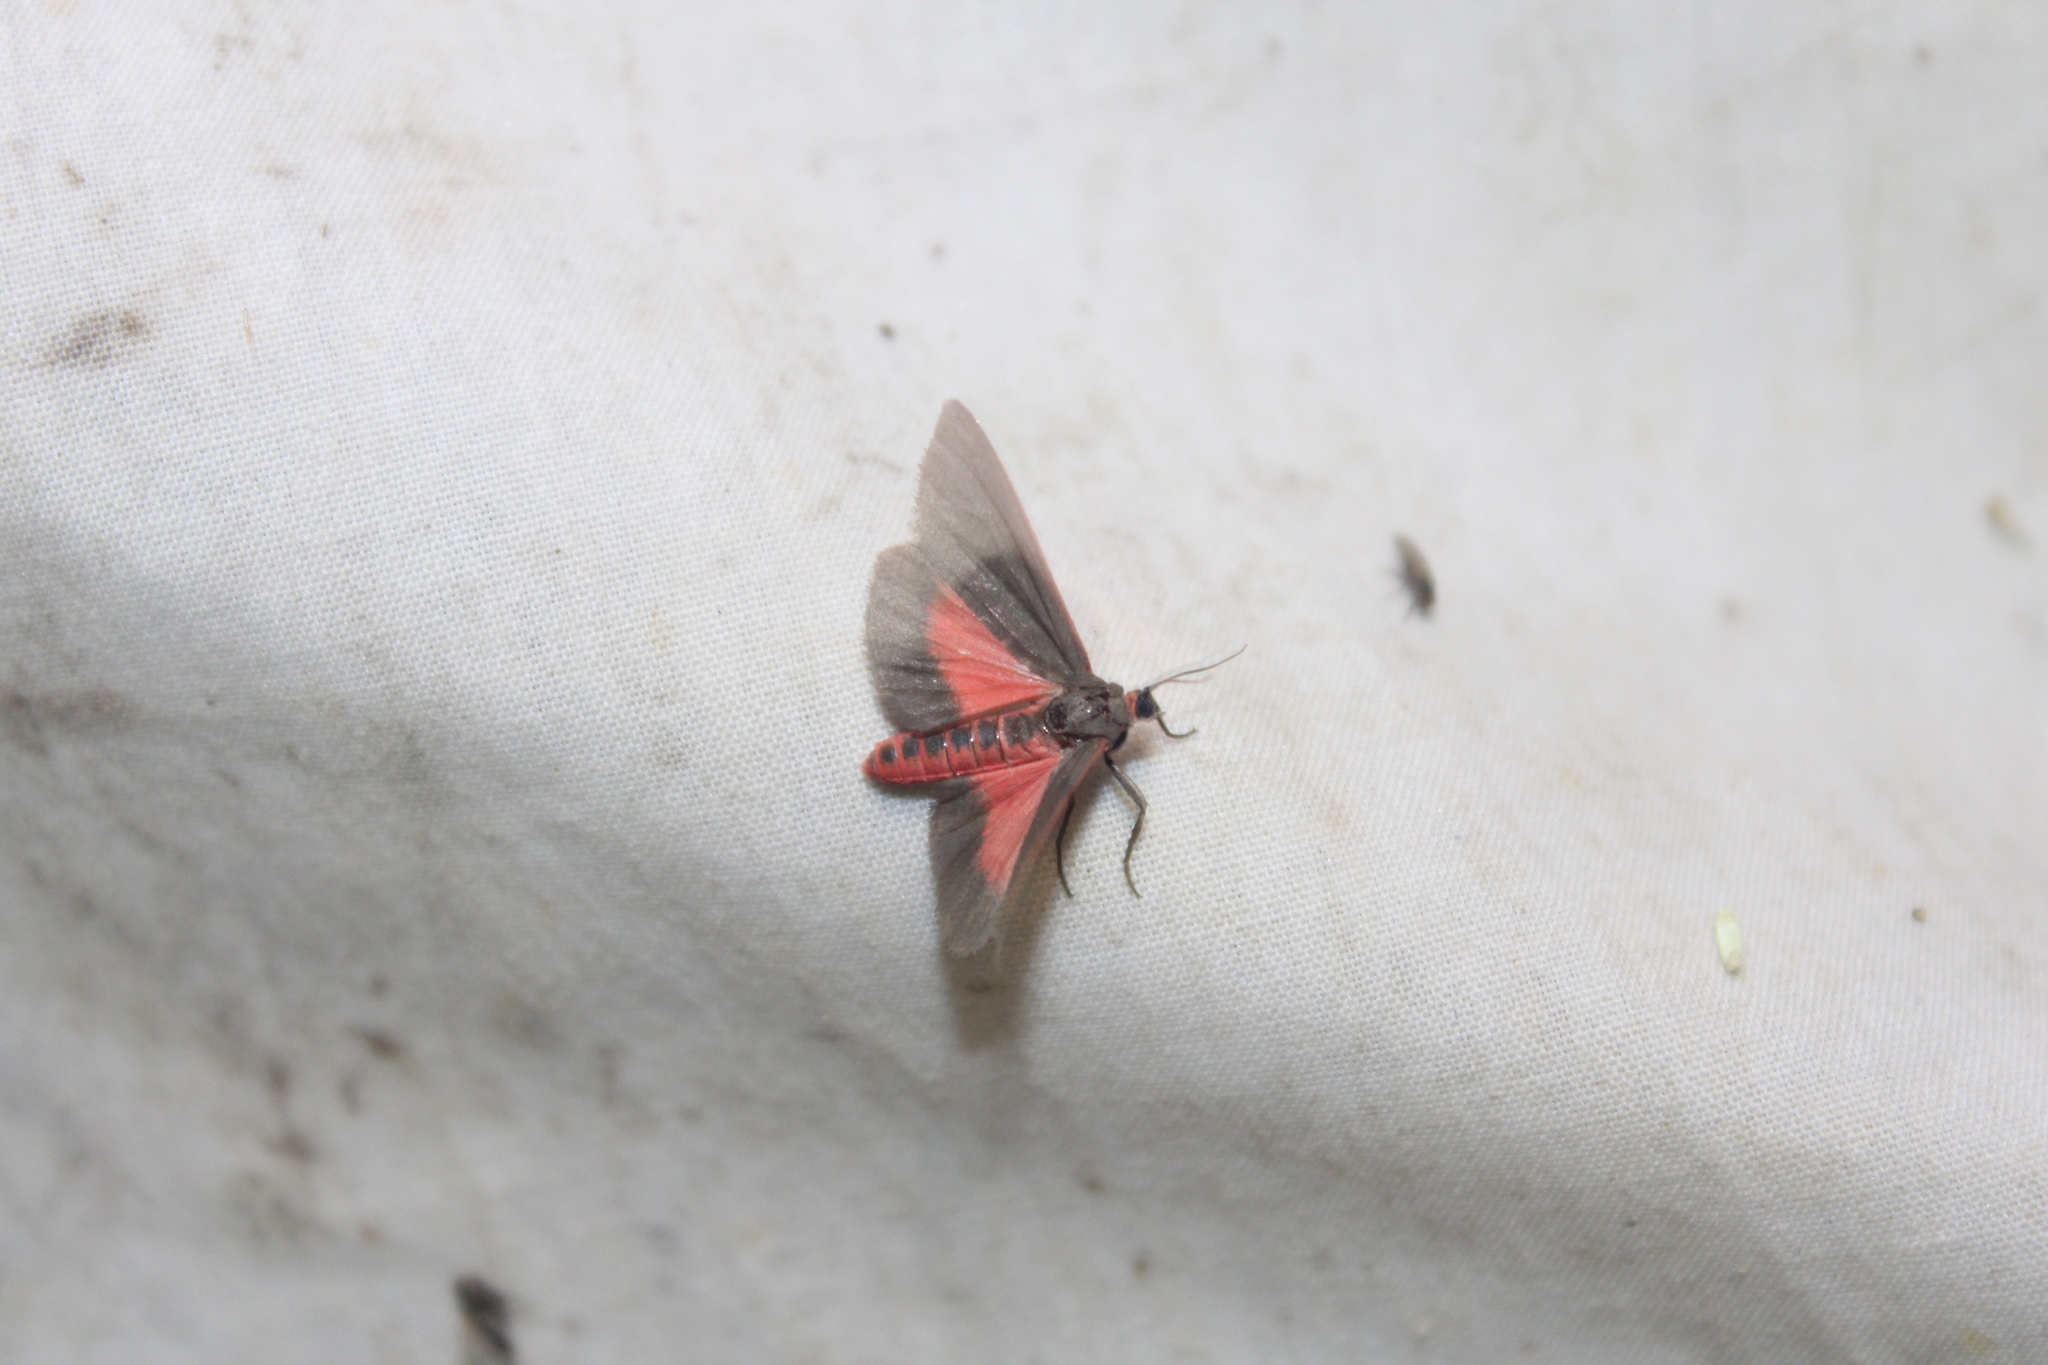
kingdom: Animalia
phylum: Arthropoda
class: Insecta
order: Lepidoptera
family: Erebidae
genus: Virbia
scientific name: Virbia laeta
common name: Joyful holomelina moth
